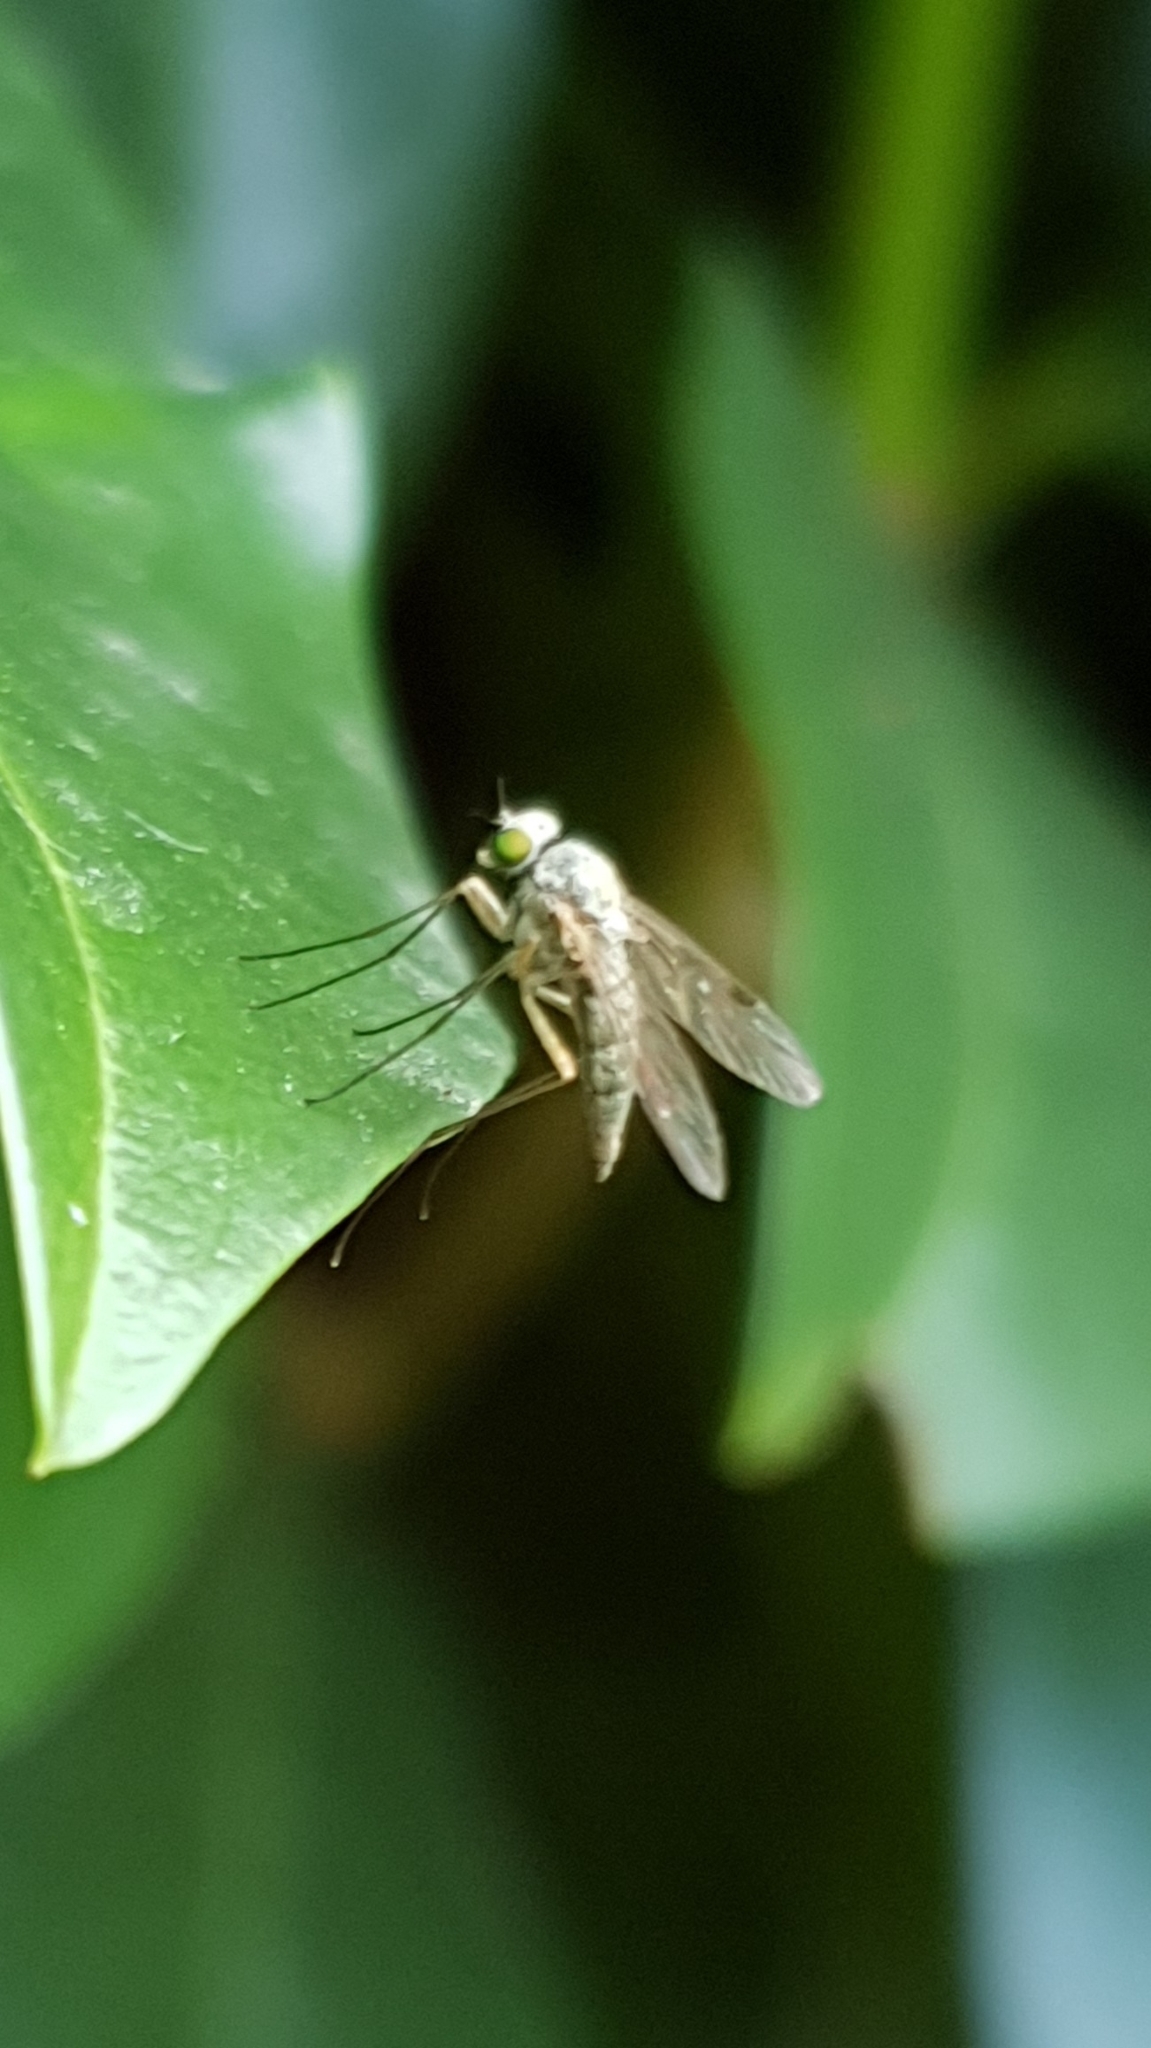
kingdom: Animalia
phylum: Arthropoda
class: Insecta
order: Diptera
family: Rhagionidae
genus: Chrysopilus
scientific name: Chrysopilus asiliformis
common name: Little snipefly
